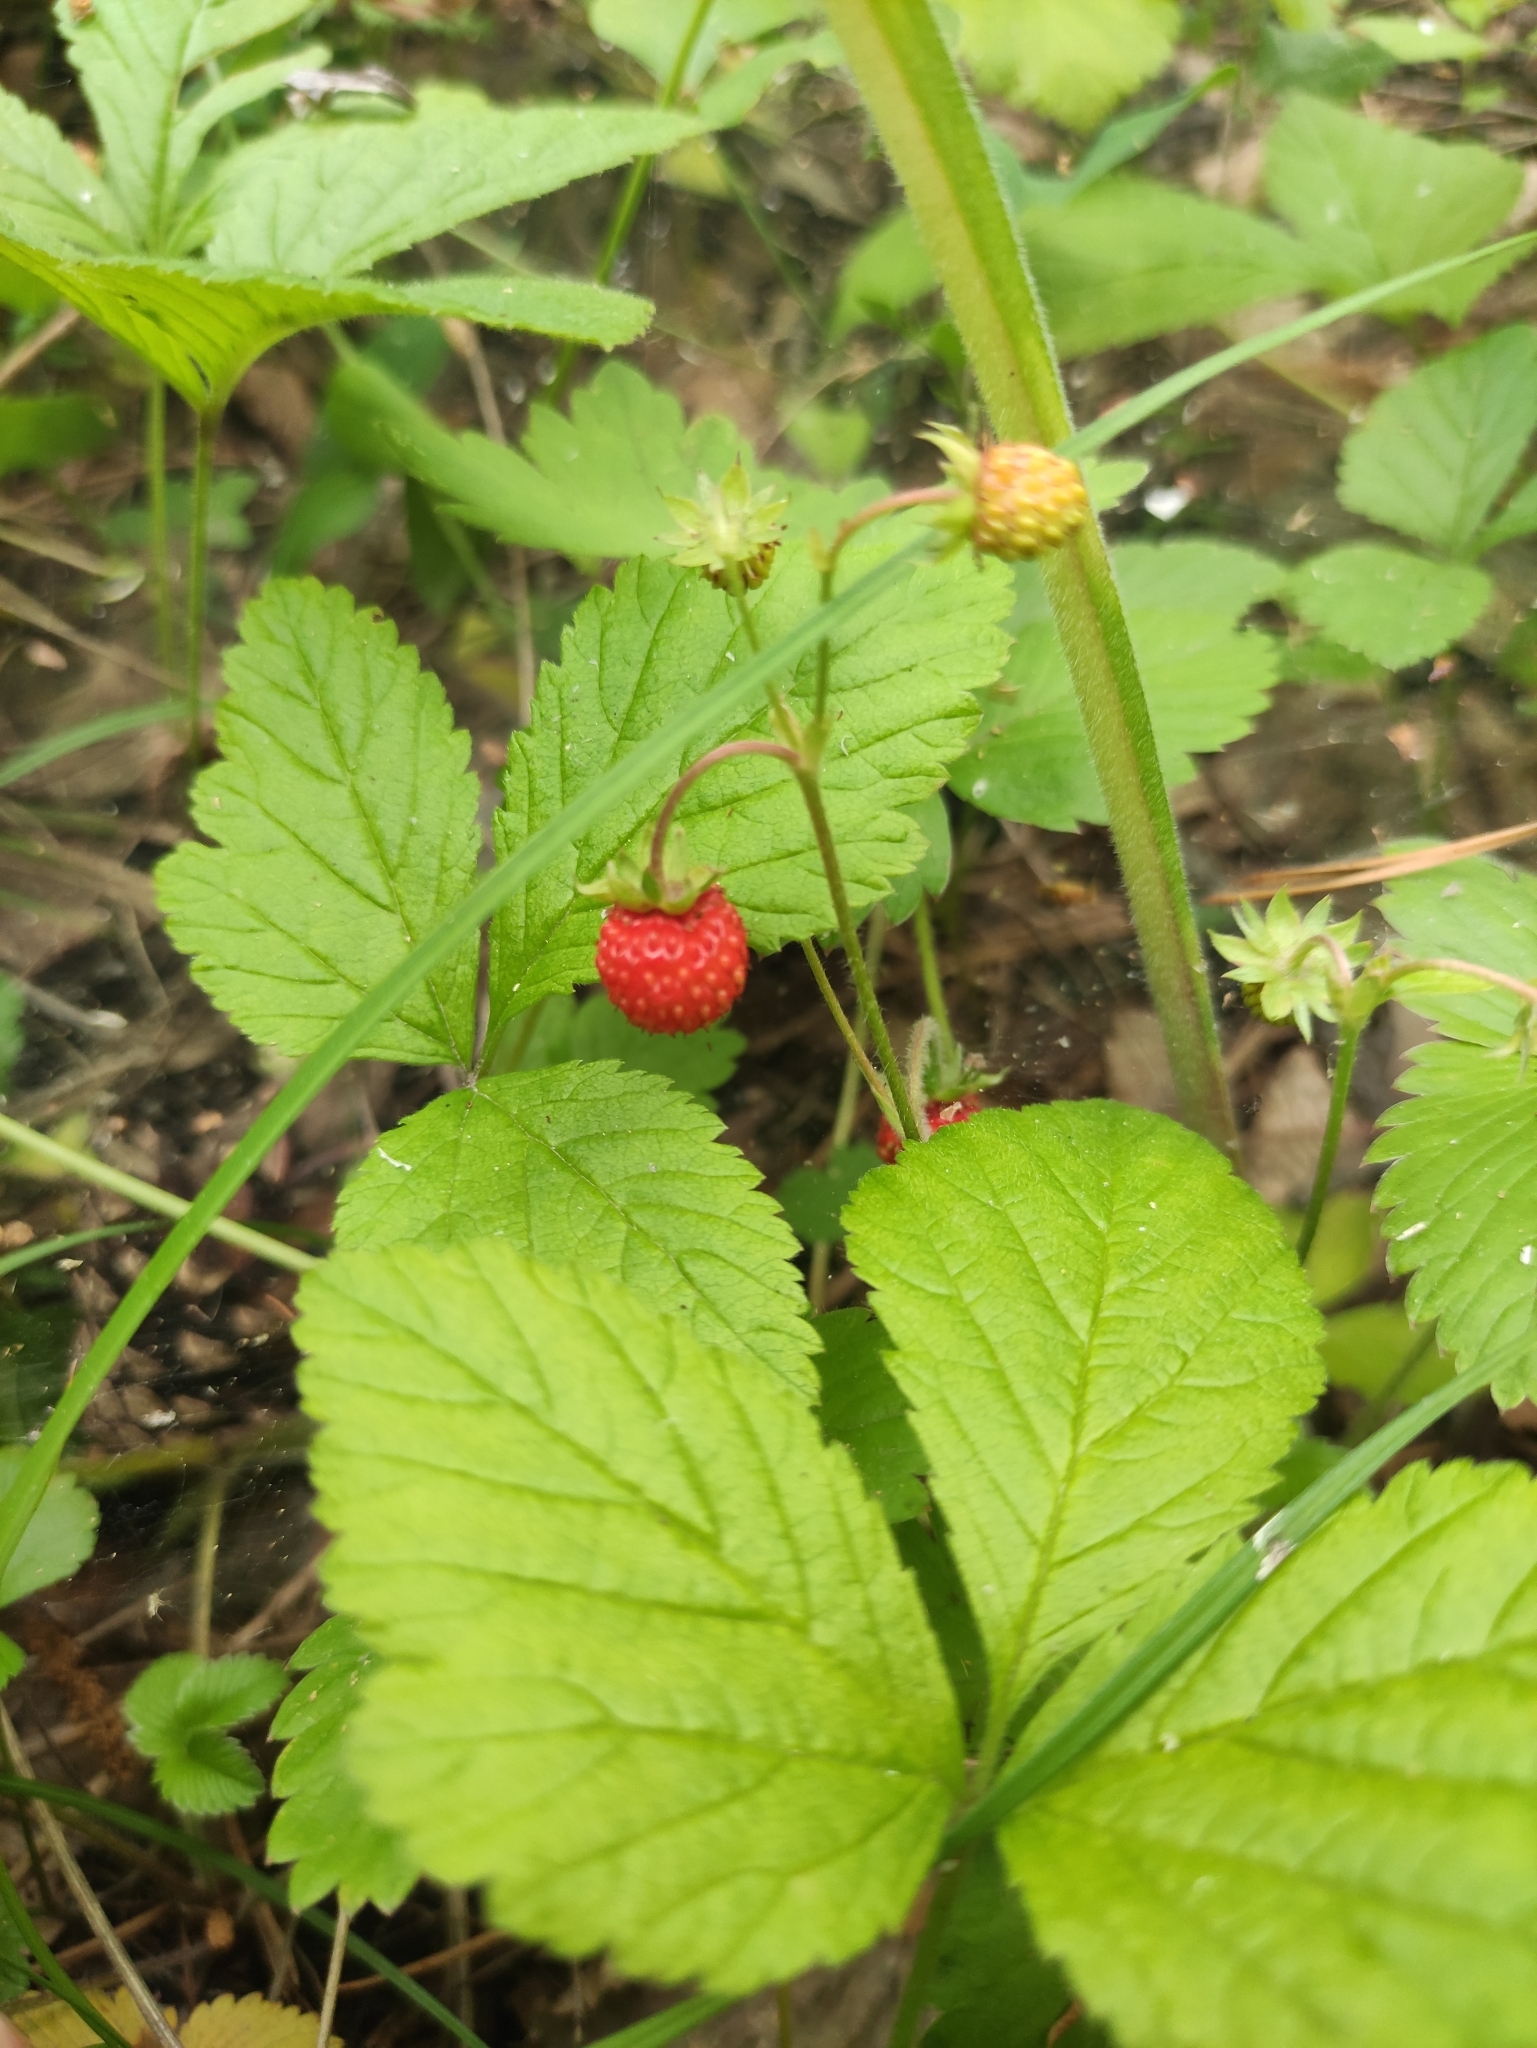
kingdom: Plantae
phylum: Tracheophyta
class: Magnoliopsida
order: Rosales
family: Rosaceae
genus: Fragaria
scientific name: Fragaria vesca
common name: Wild strawberry
